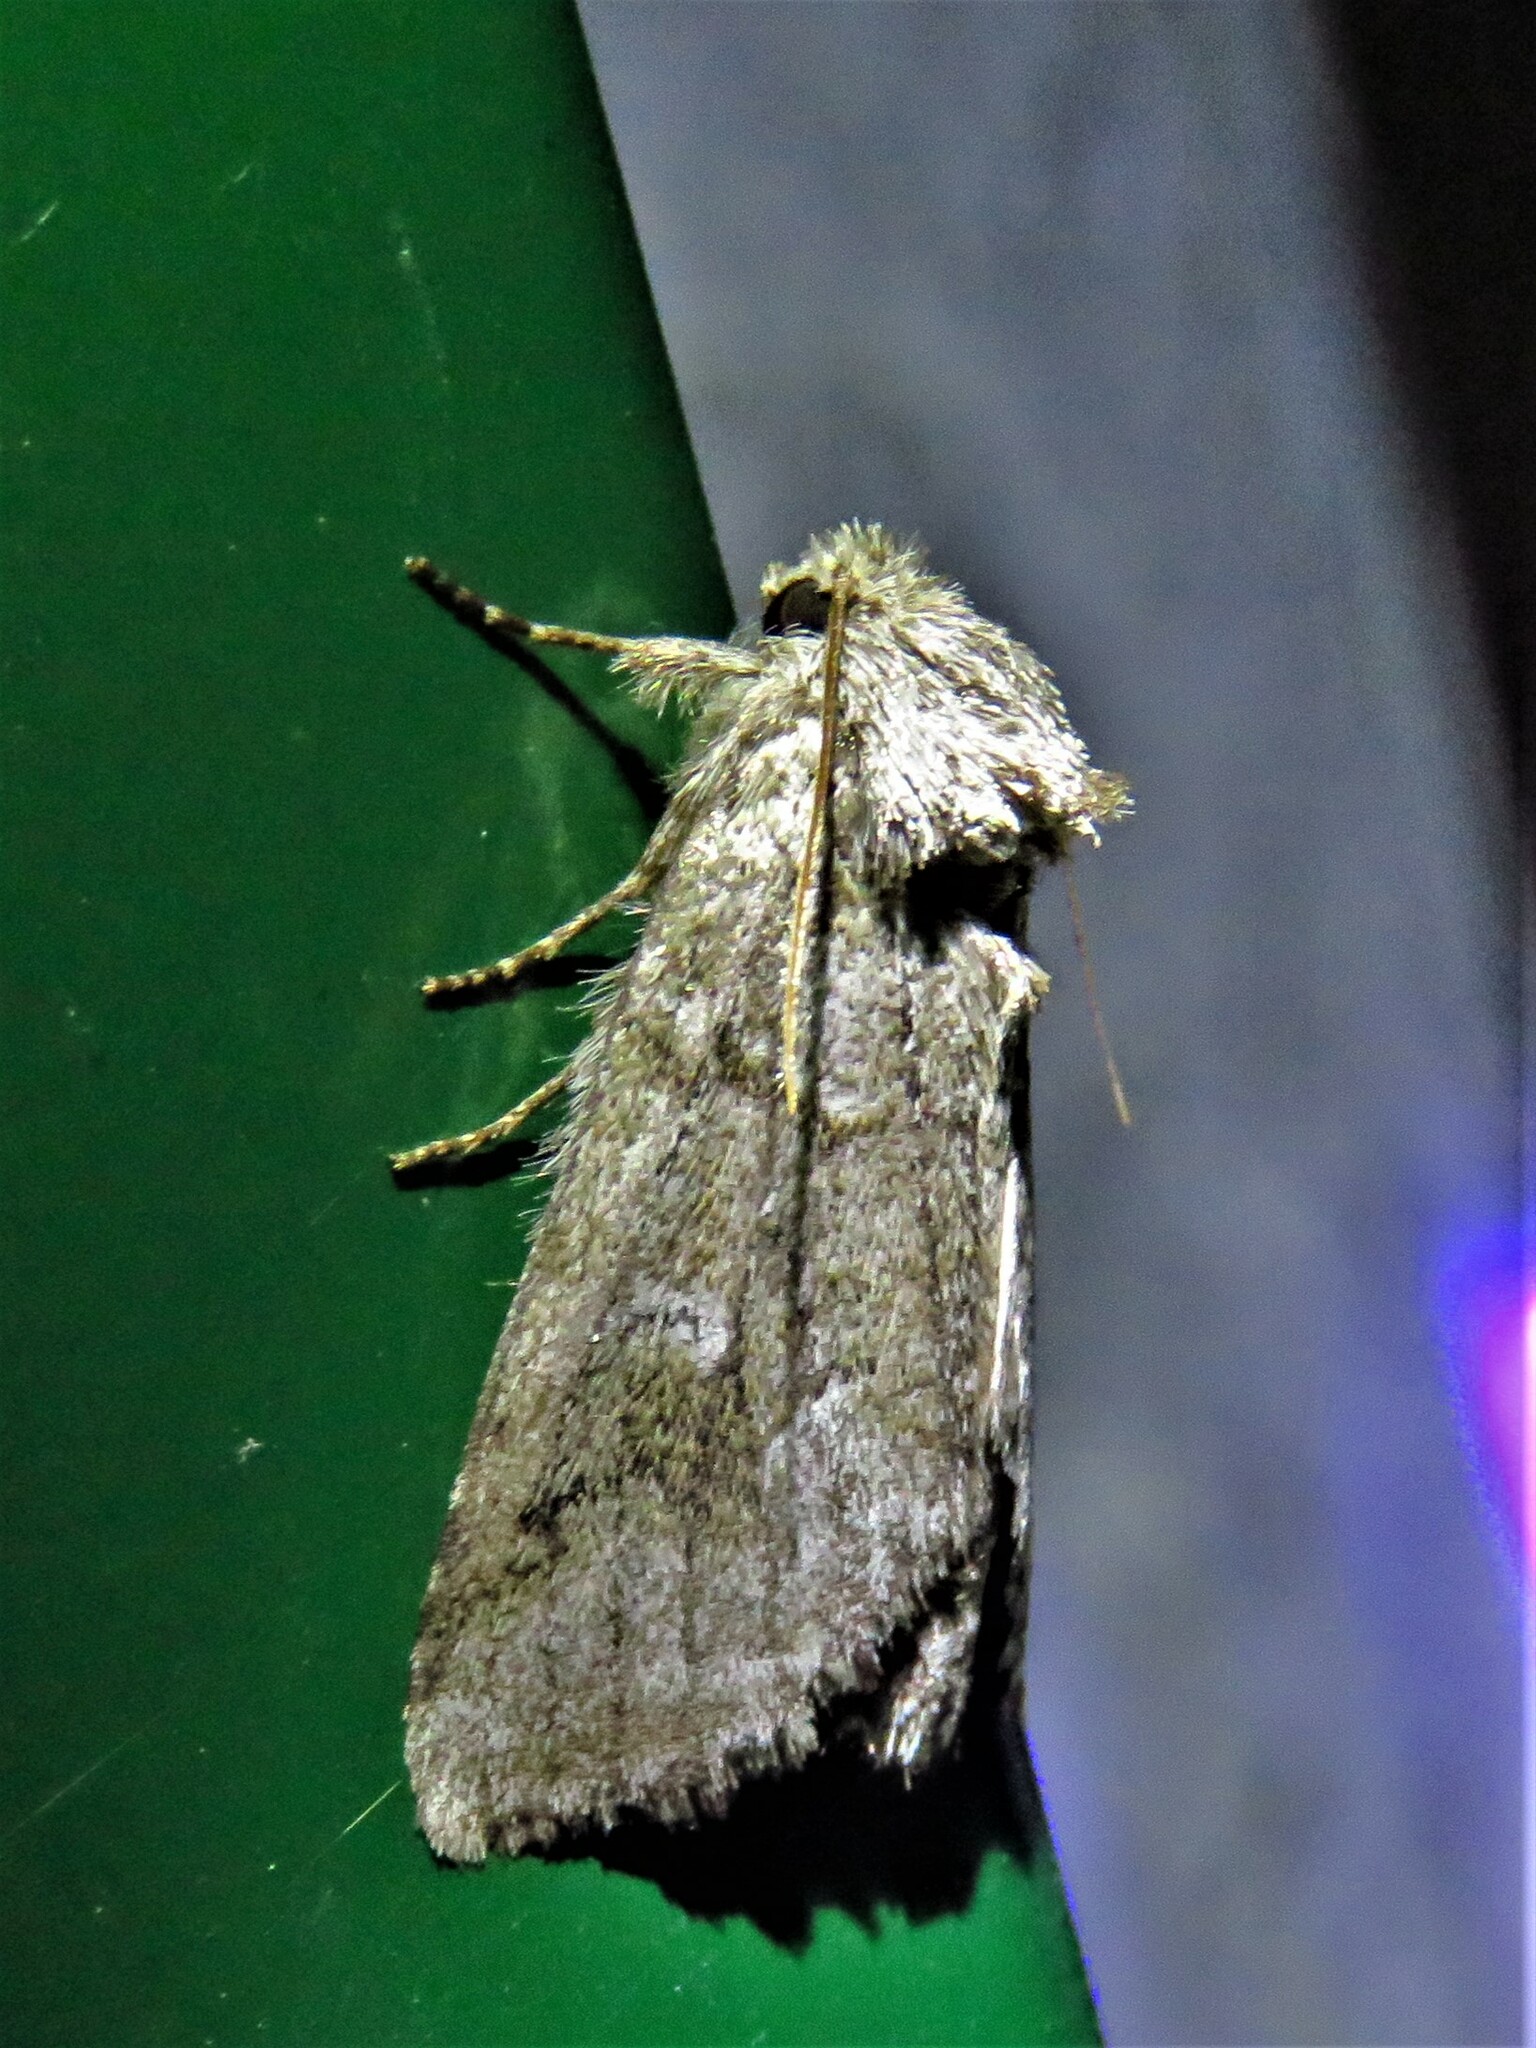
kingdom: Animalia
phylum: Arthropoda
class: Insecta
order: Lepidoptera
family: Notodontidae
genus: Lochmaeus
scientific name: Lochmaeus bilineata
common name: Double-lined prominent
